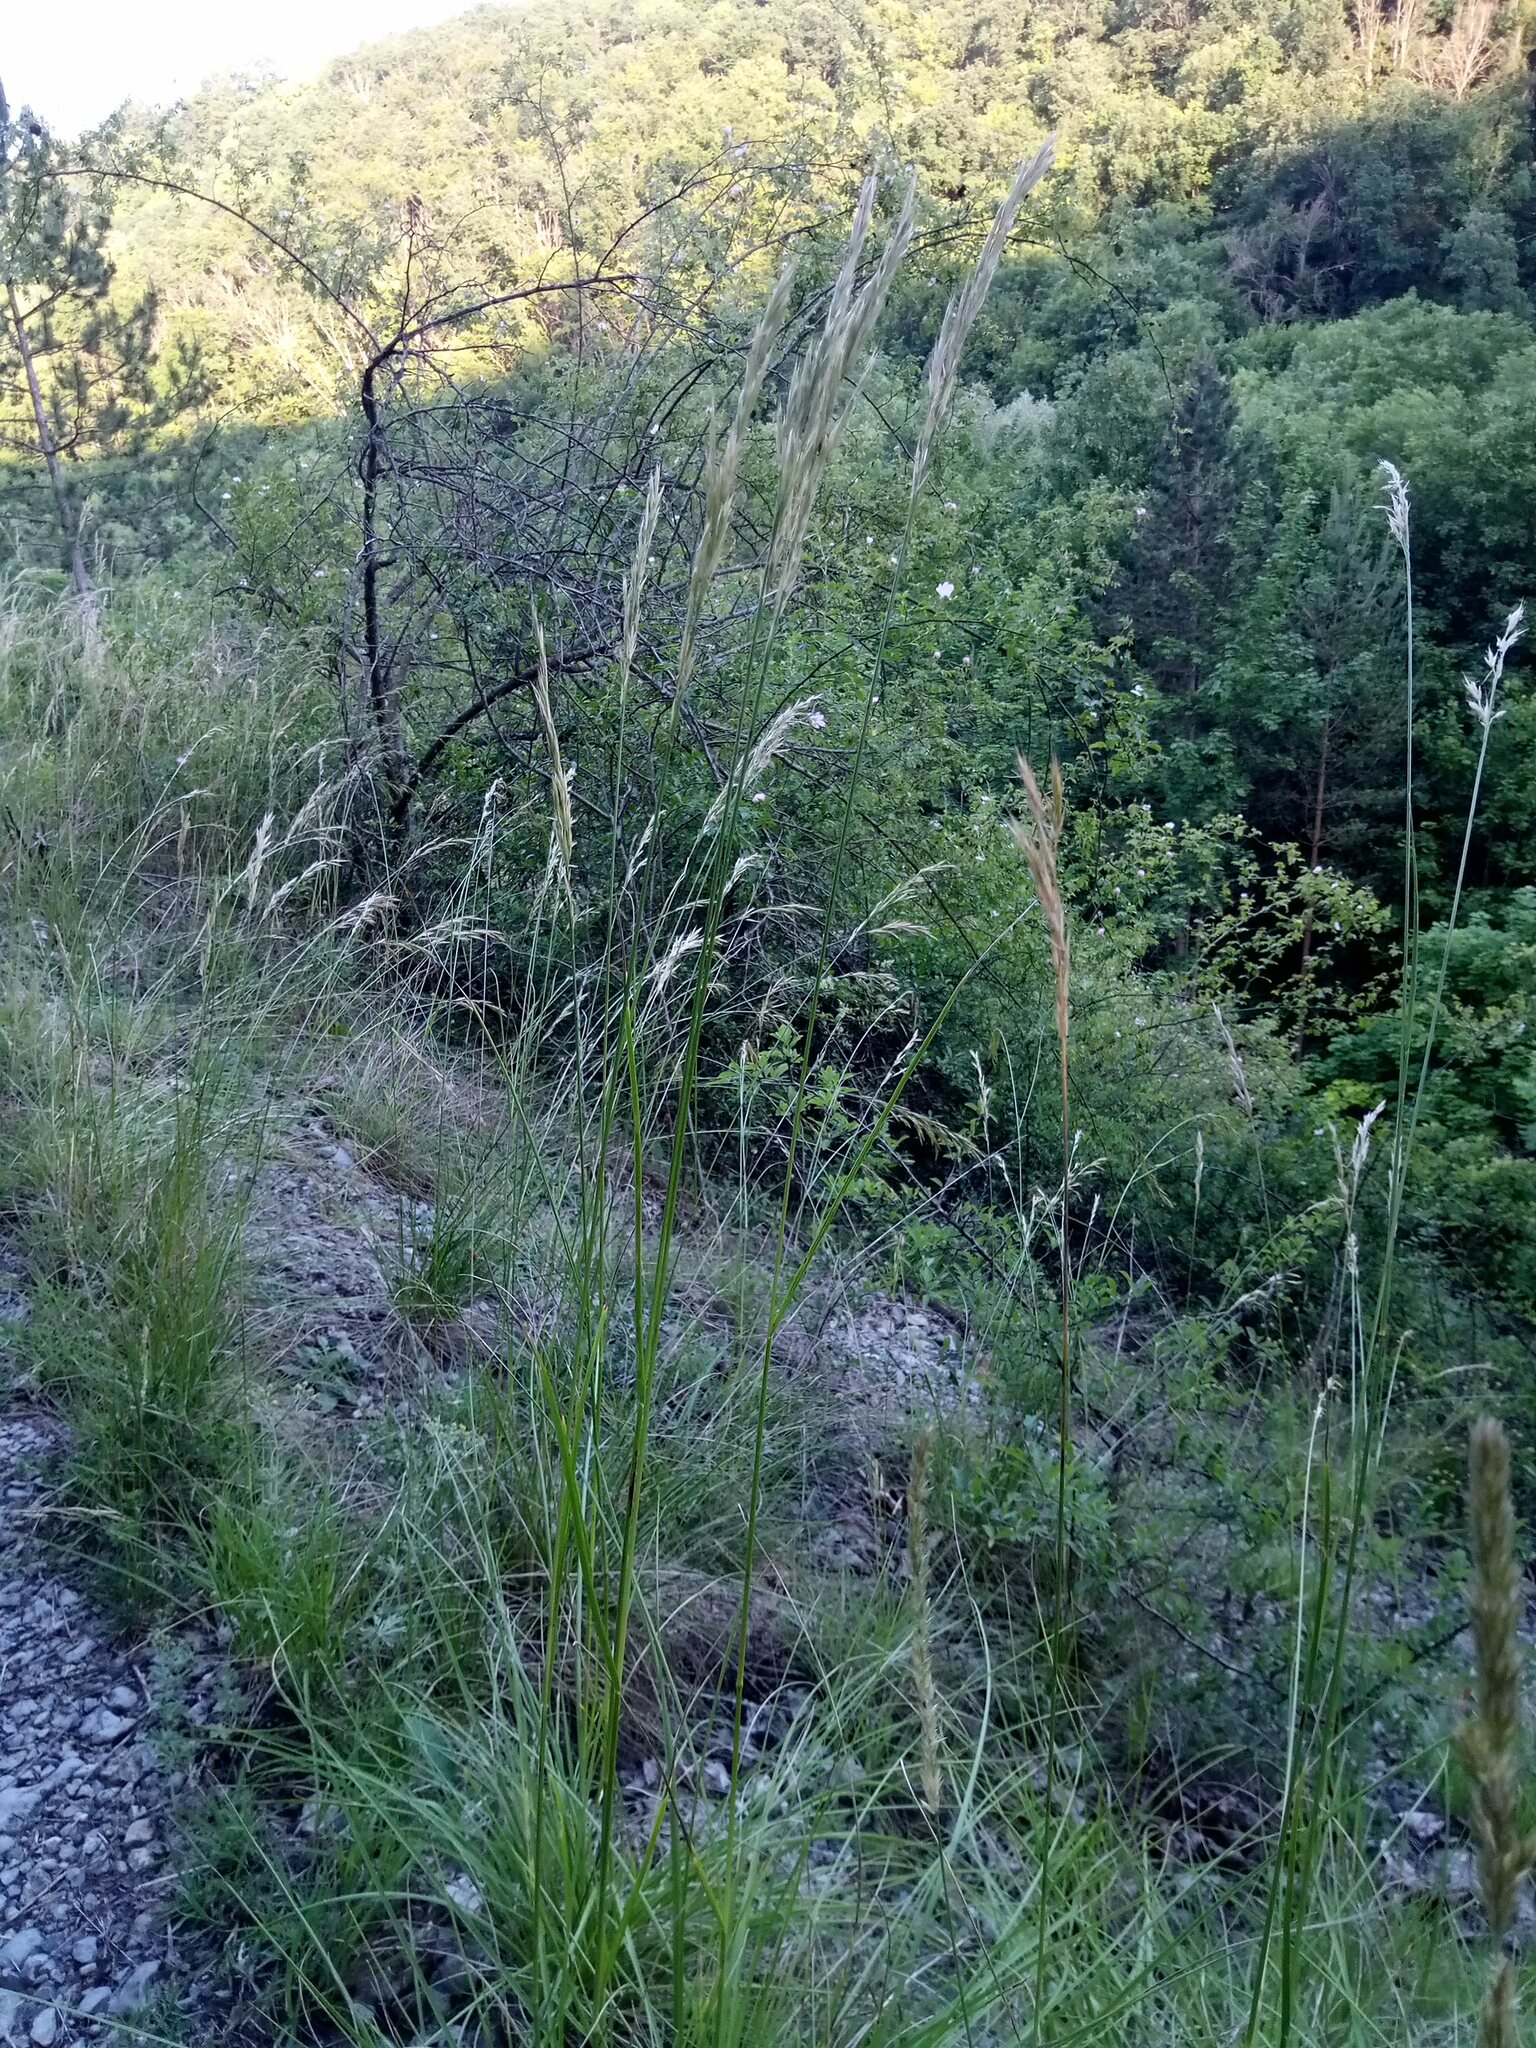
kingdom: Plantae
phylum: Tracheophyta
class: Liliopsida
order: Poales
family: Poaceae
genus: Bromus
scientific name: Bromus erectus
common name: Erect brome
